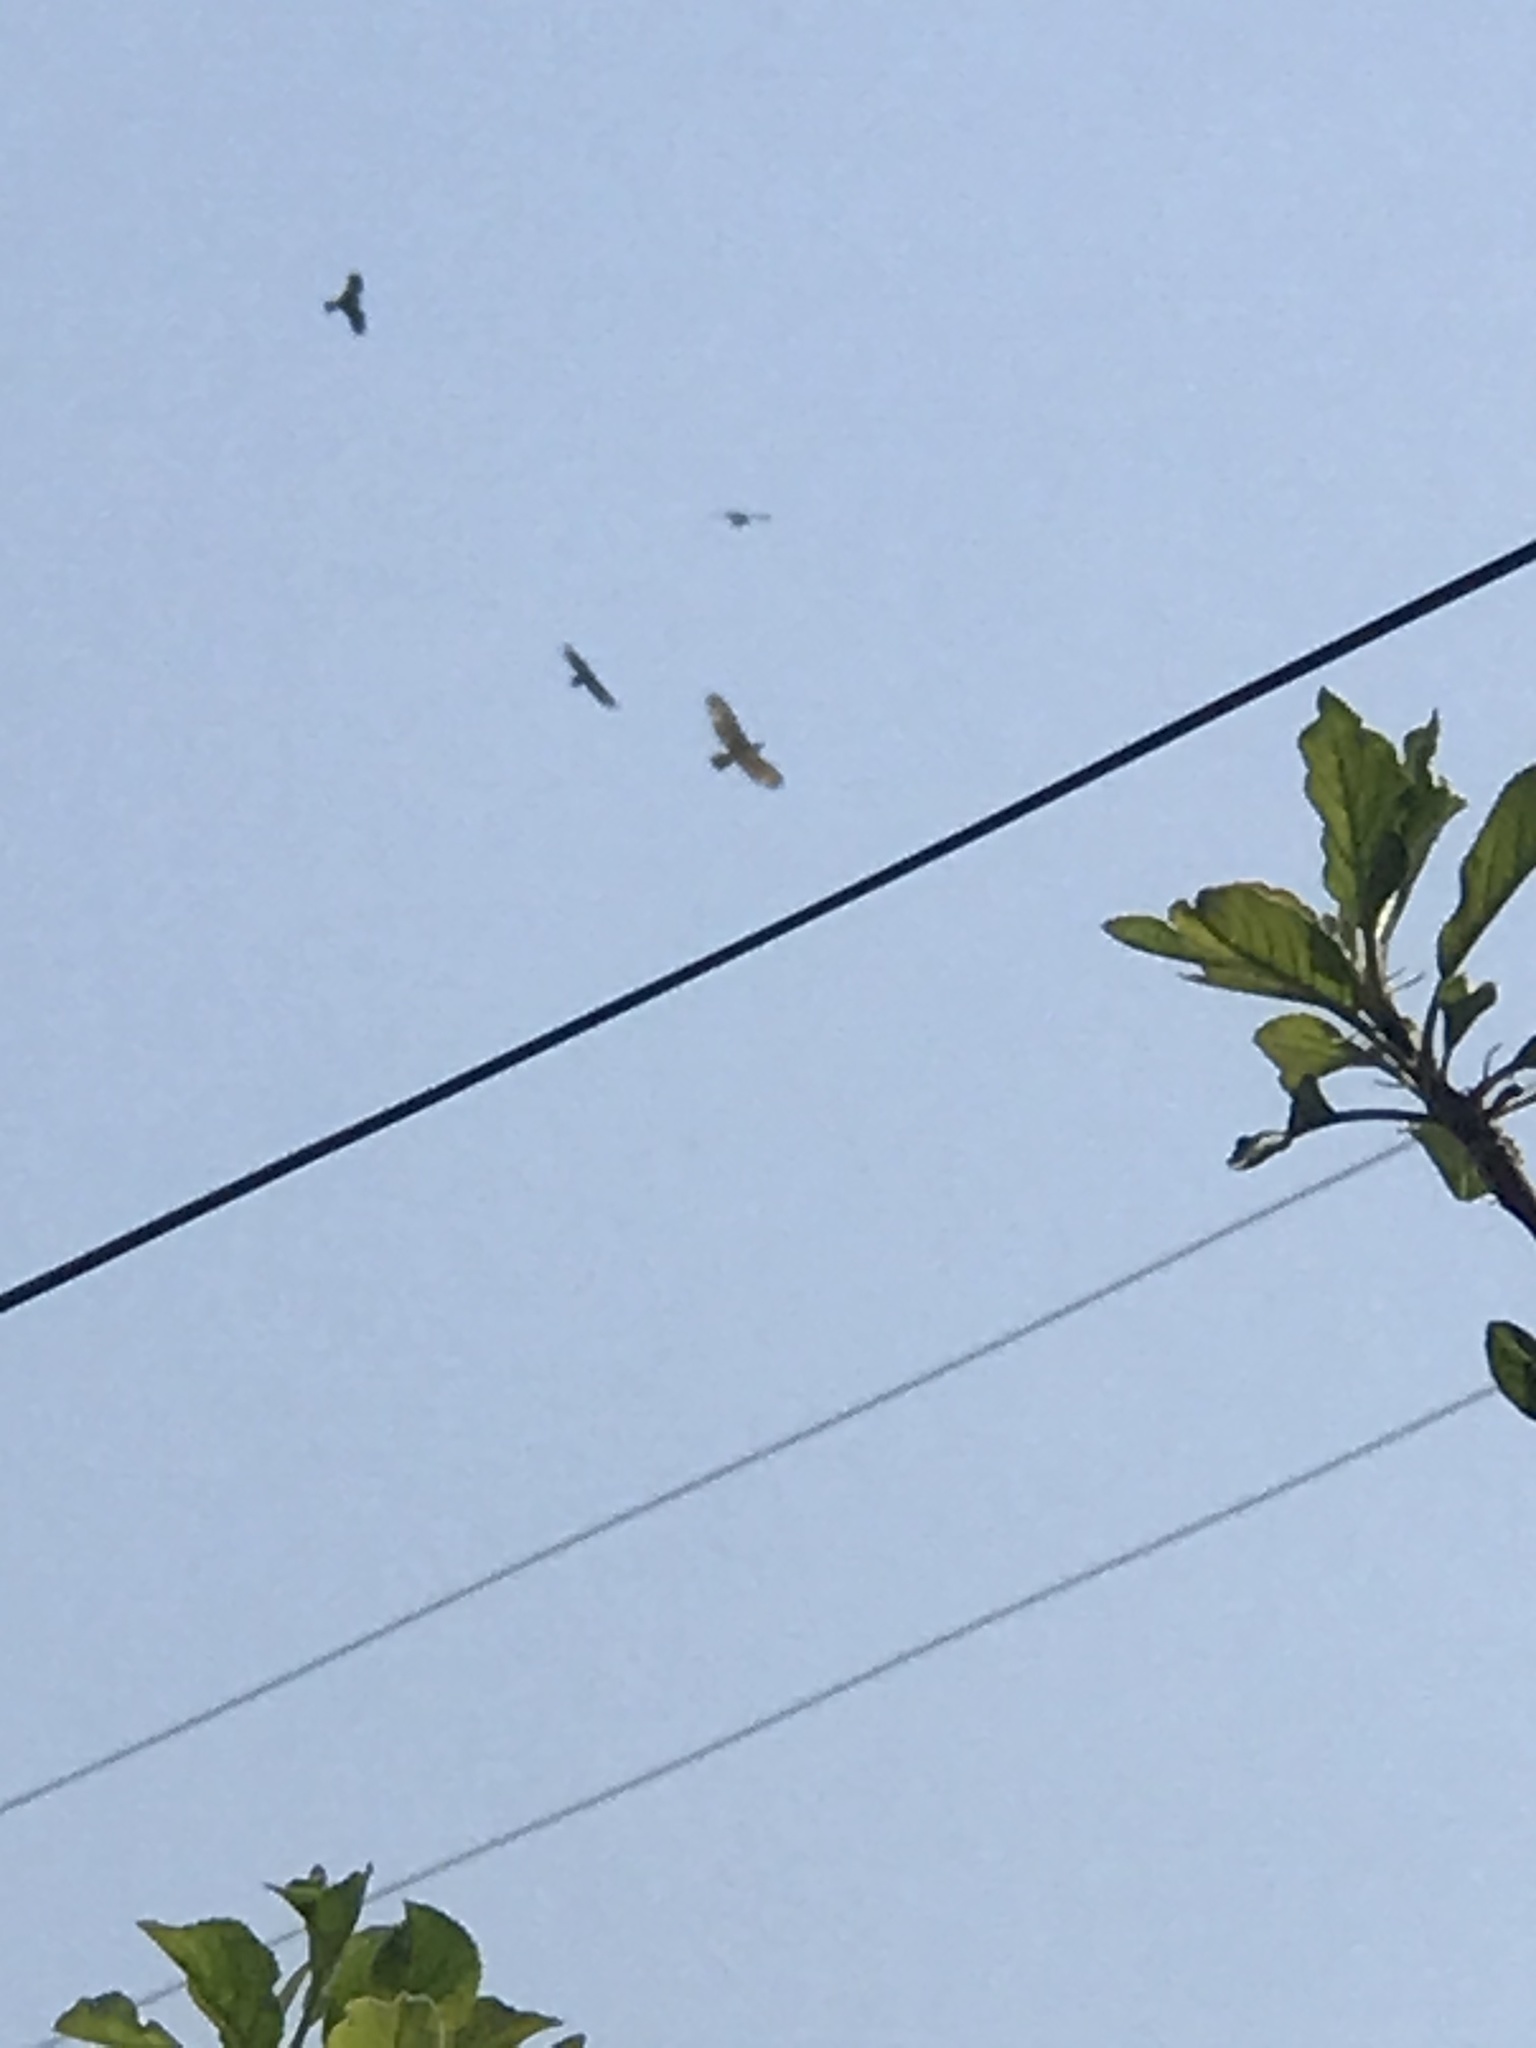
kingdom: Animalia
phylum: Chordata
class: Aves
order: Accipitriformes
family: Accipitridae
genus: Buteo
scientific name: Buteo jamaicensis
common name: Red-tailed hawk
